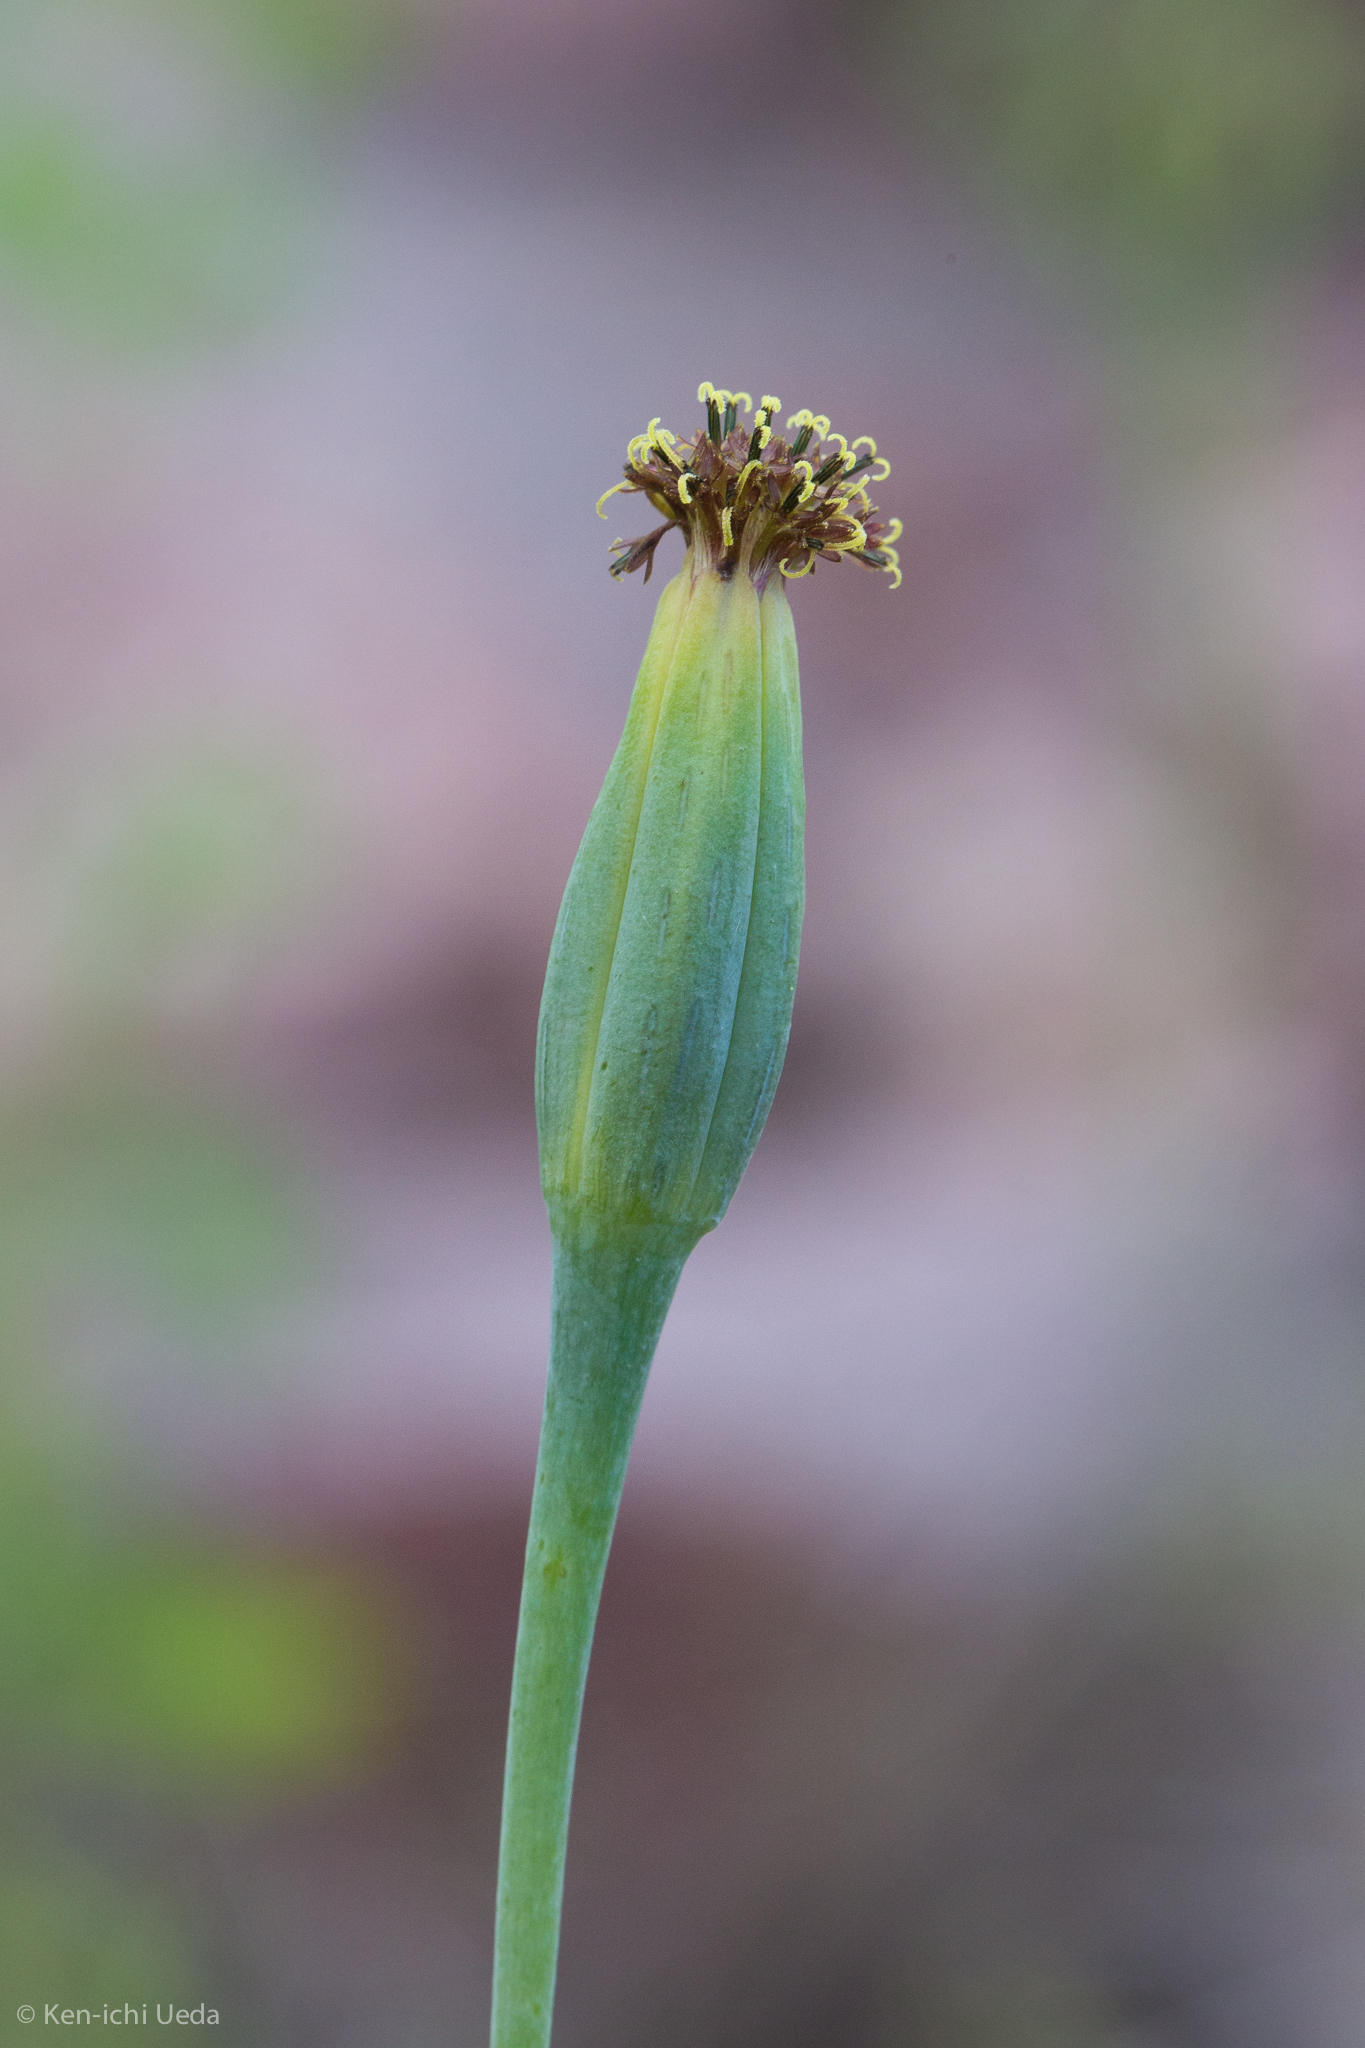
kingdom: Plantae
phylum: Tracheophyta
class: Magnoliopsida
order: Asterales
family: Asteraceae
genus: Porophyllum
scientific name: Porophyllum ruderale
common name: Yerba porosa
